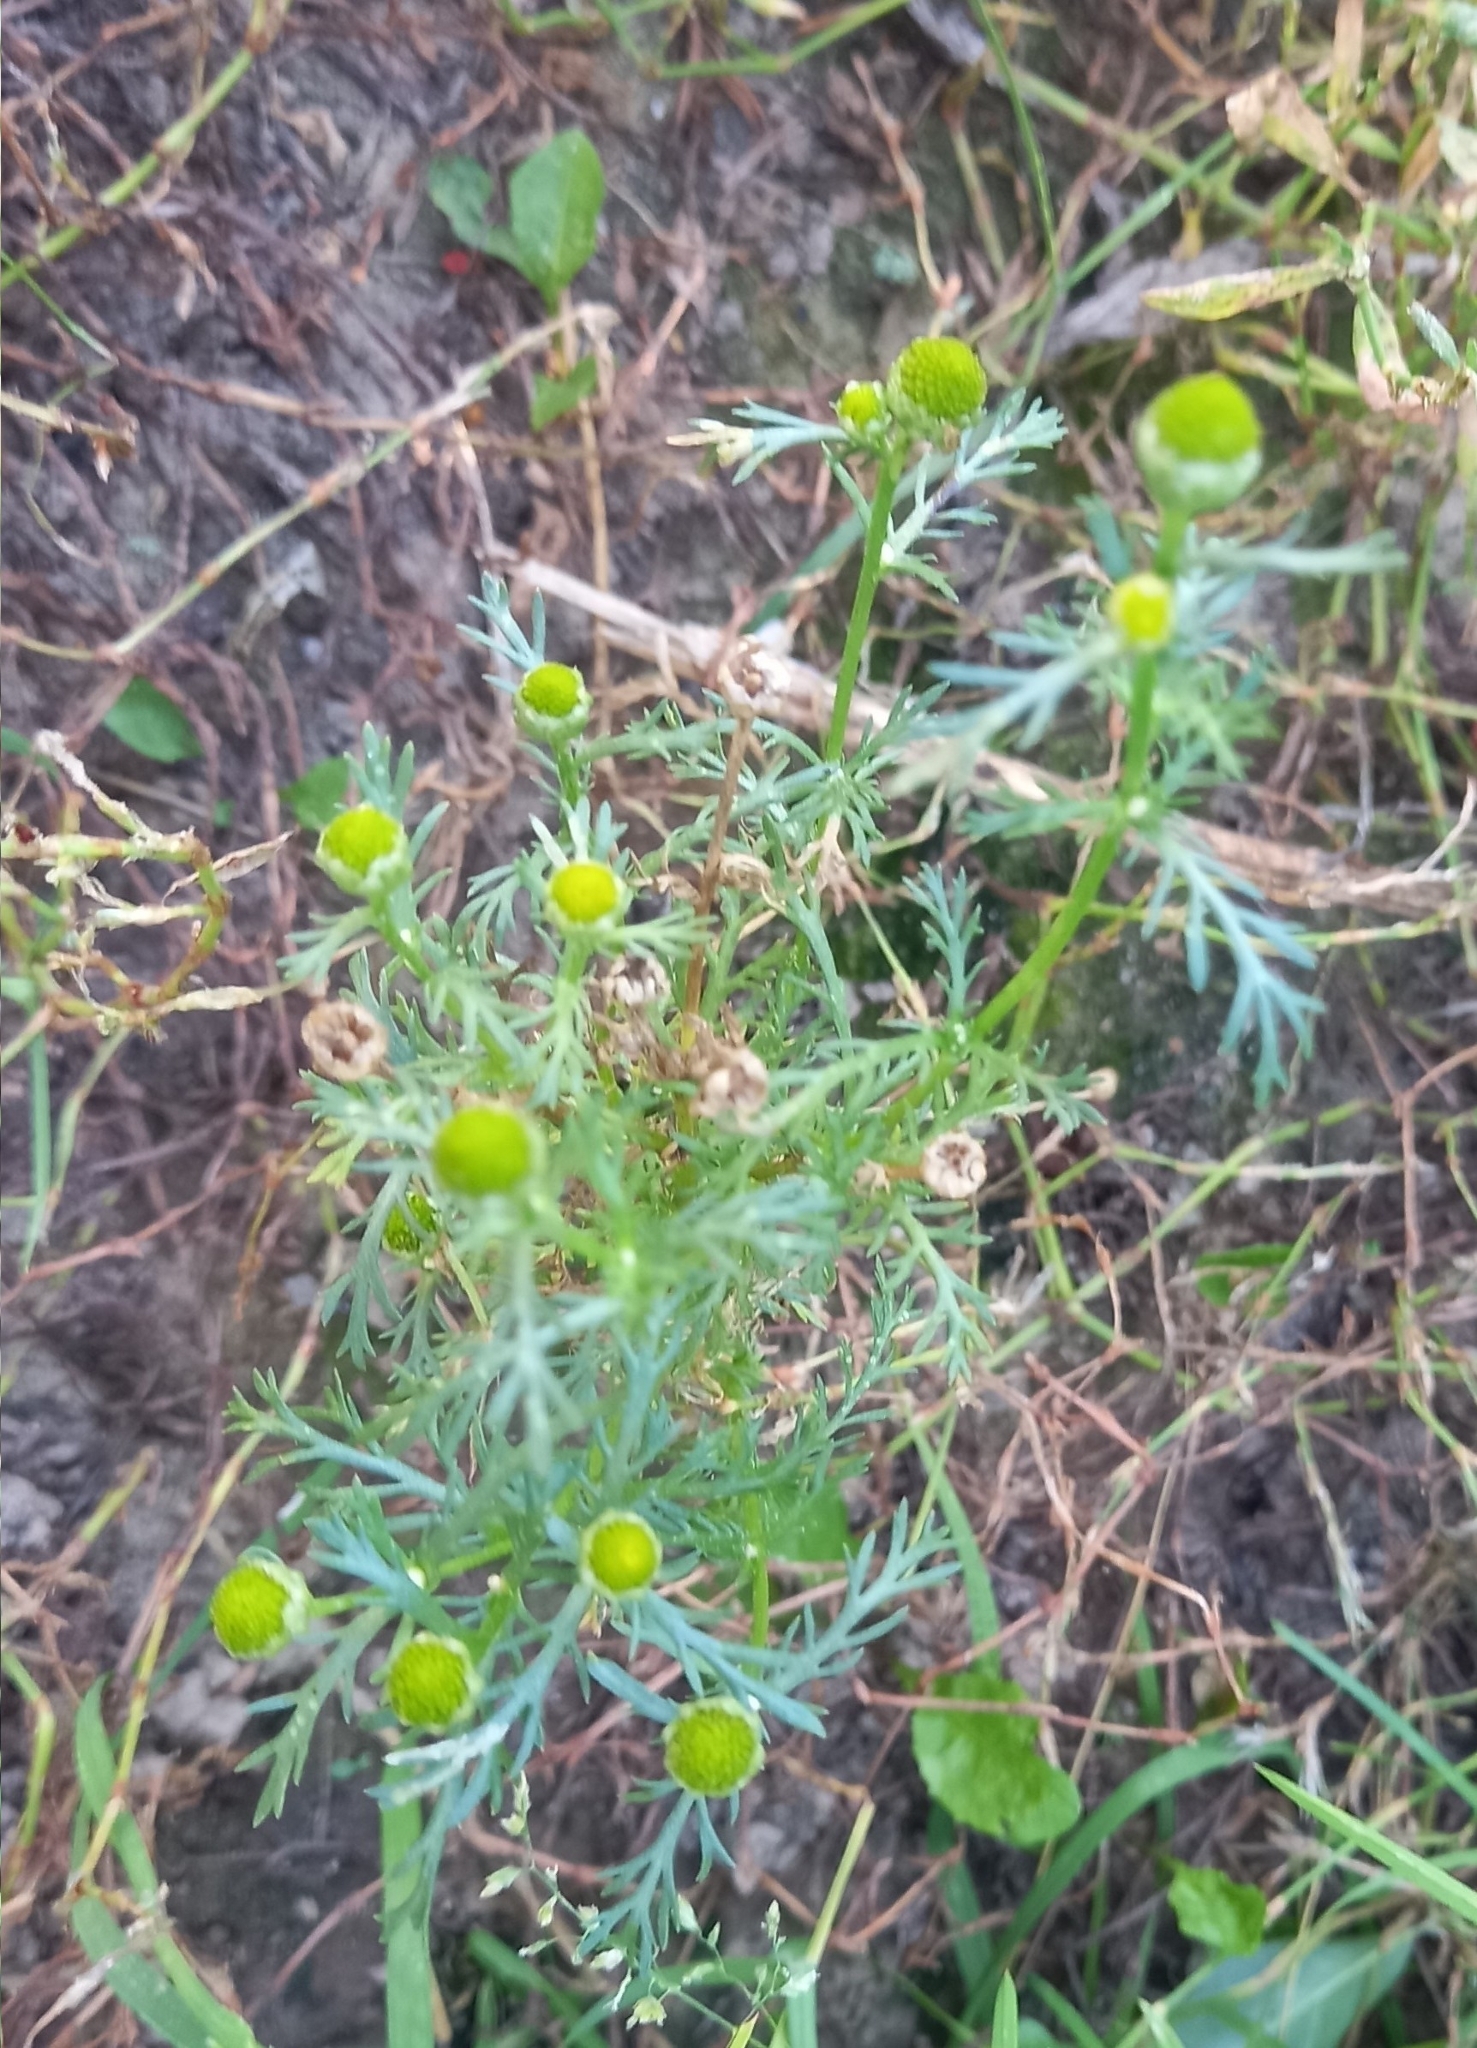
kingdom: Plantae
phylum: Tracheophyta
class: Magnoliopsida
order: Asterales
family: Asteraceae
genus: Matricaria
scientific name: Matricaria discoidea
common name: Disc mayweed
